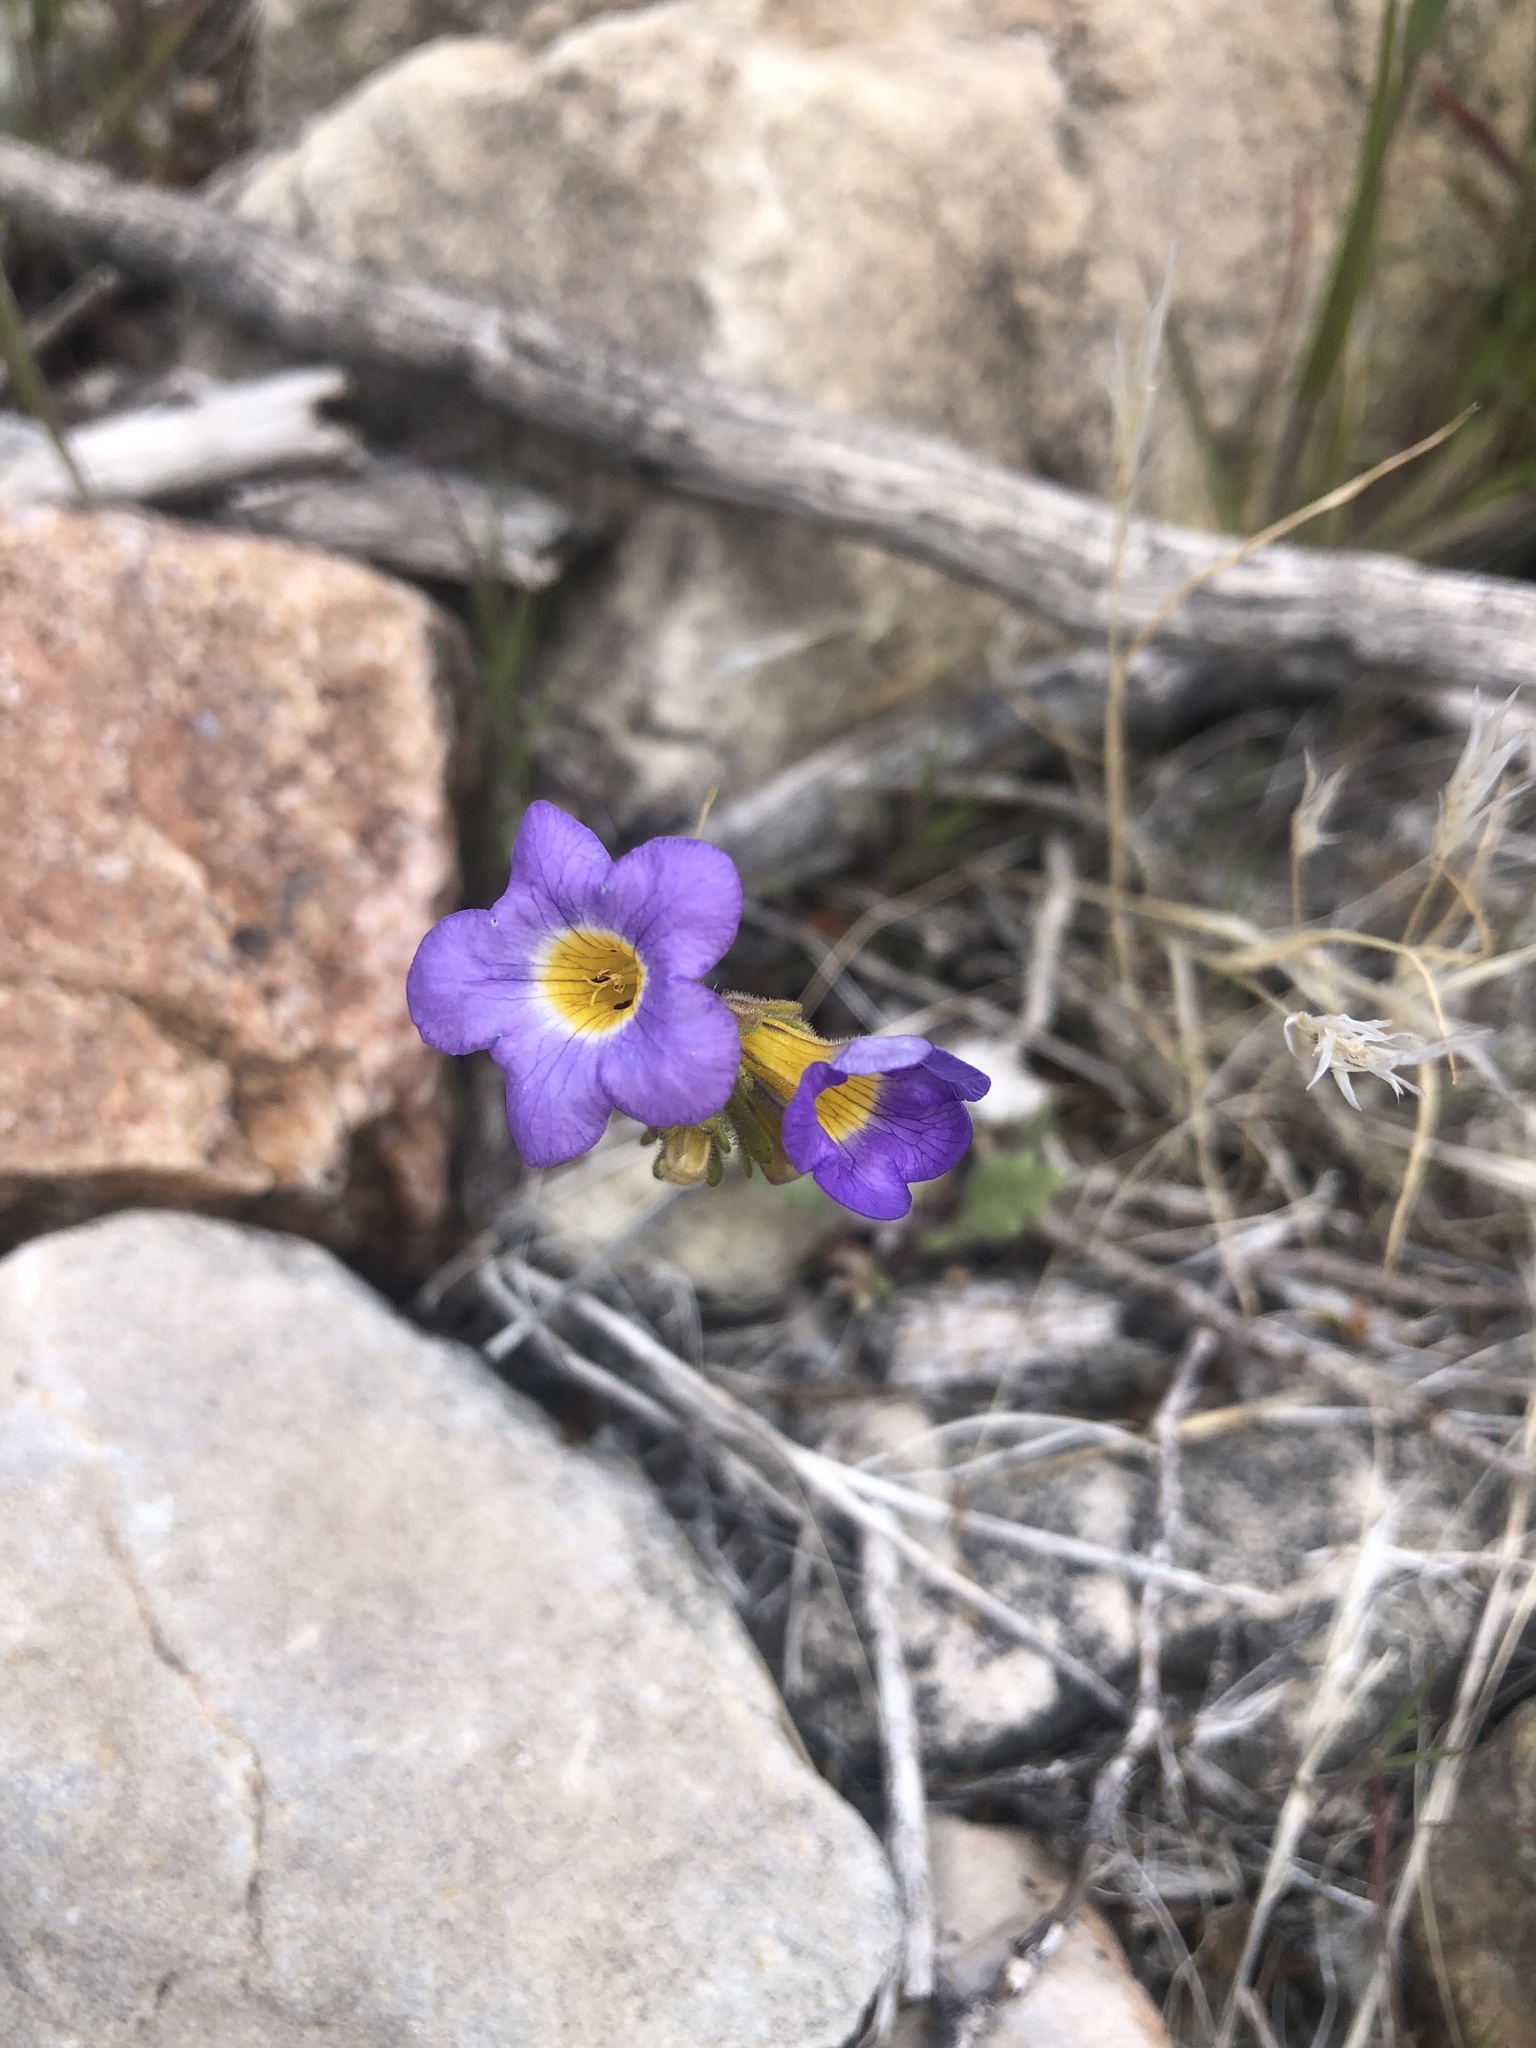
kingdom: Plantae
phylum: Tracheophyta
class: Magnoliopsida
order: Boraginales
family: Hydrophyllaceae
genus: Phacelia
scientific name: Phacelia fremontii
